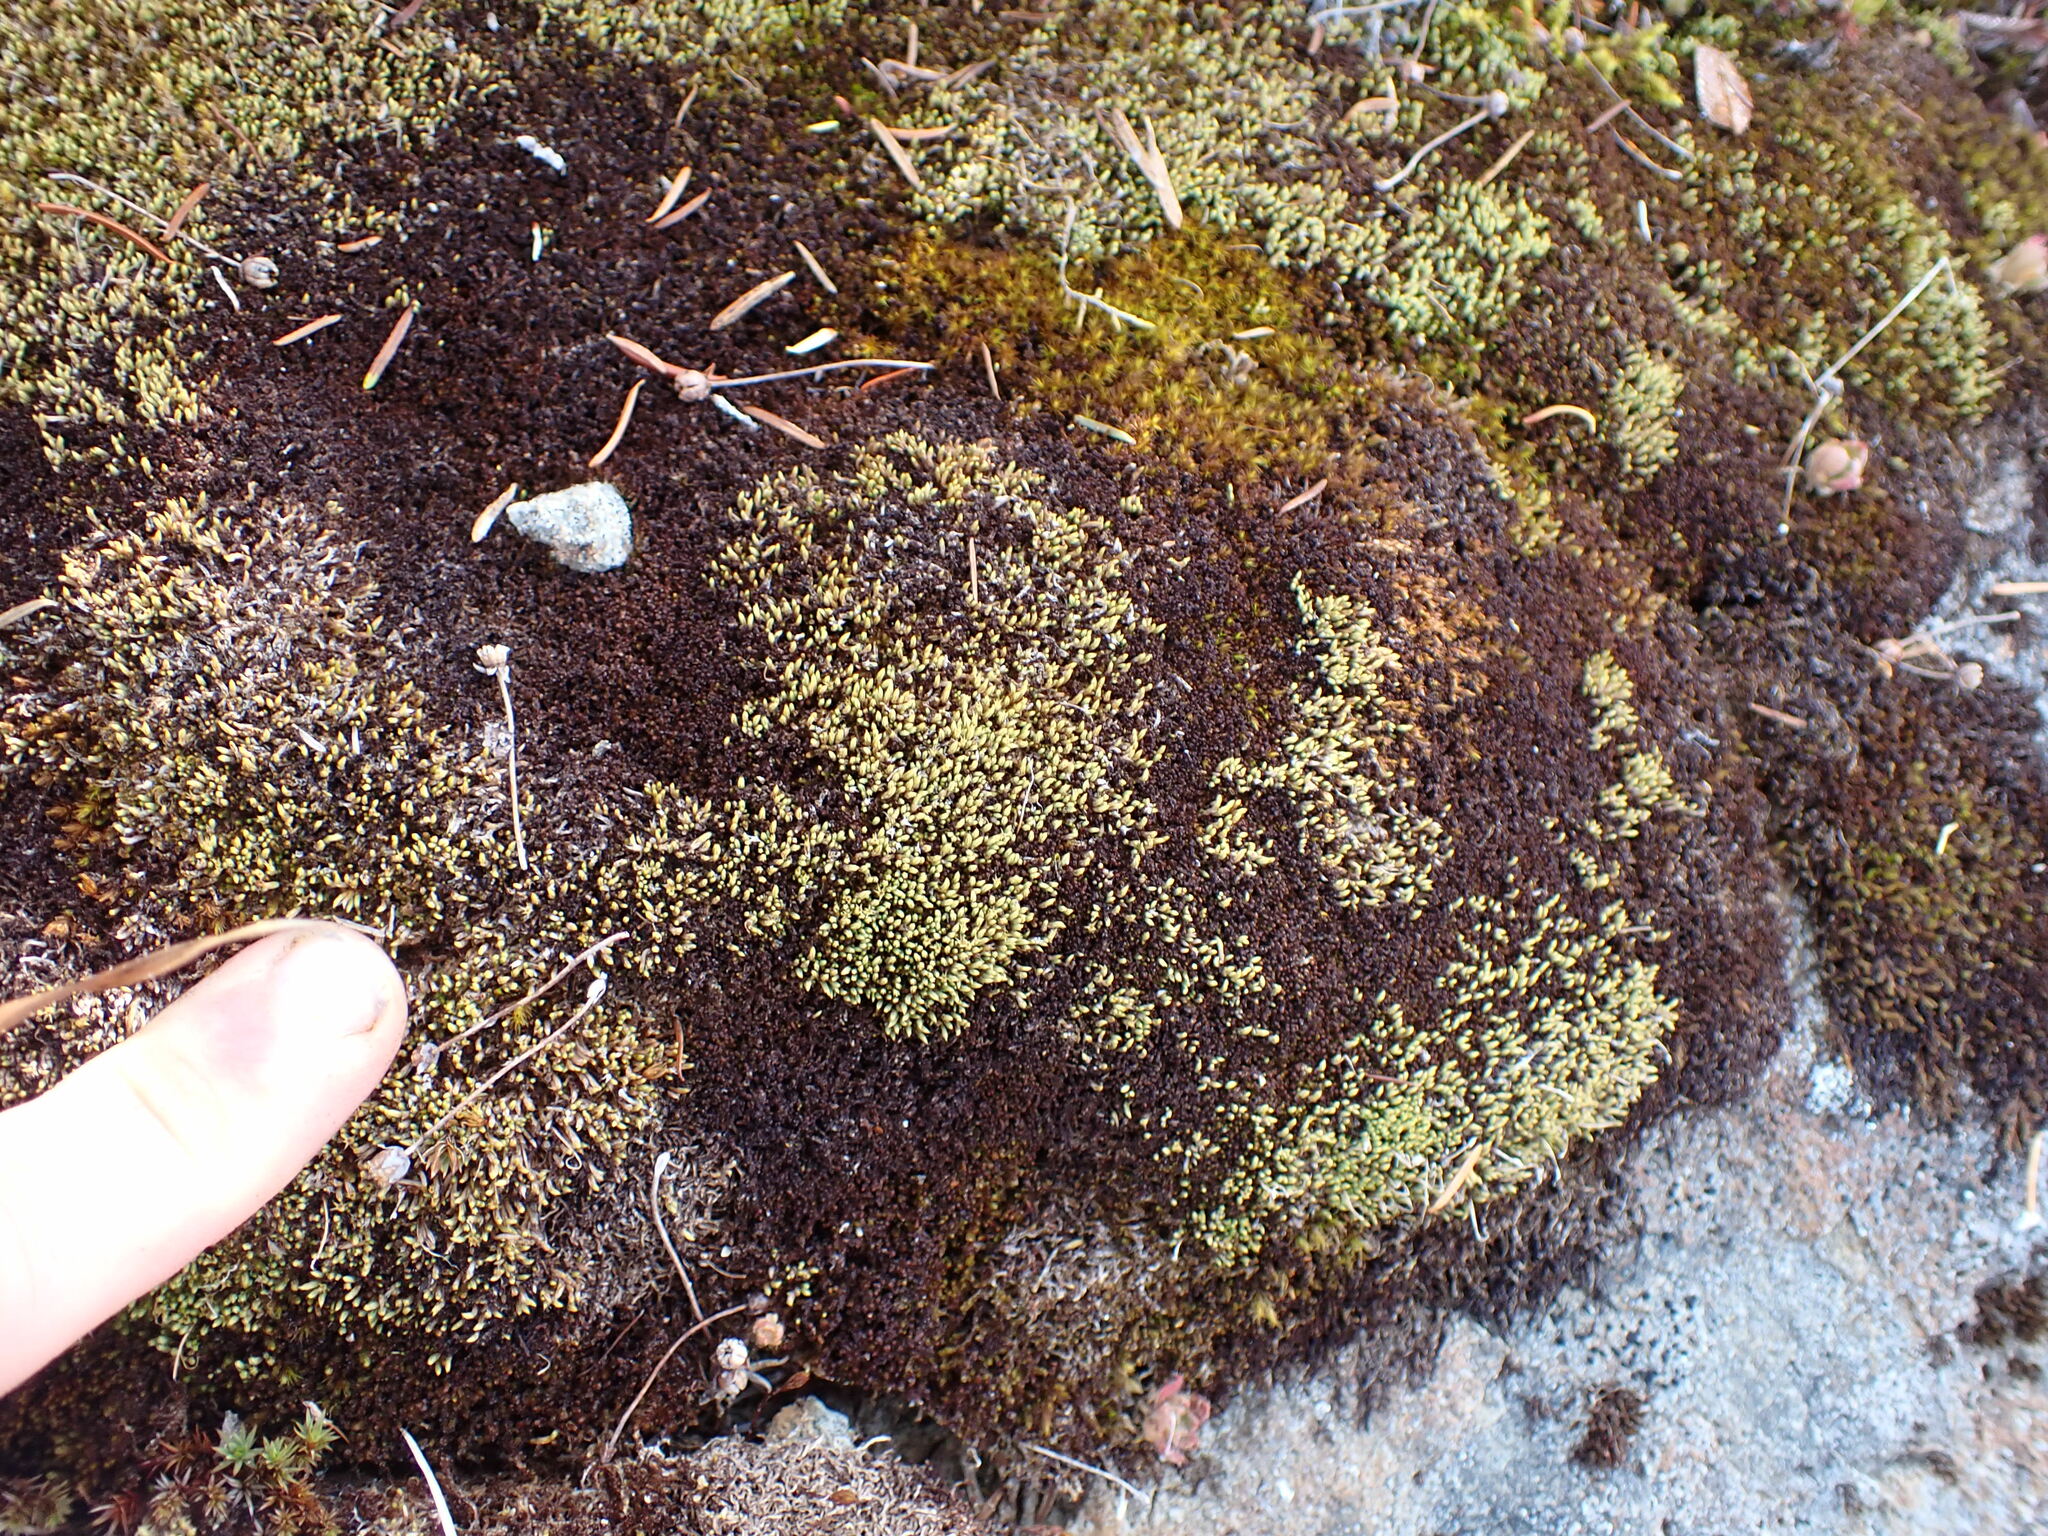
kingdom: Plantae
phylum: Bryophyta
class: Bryopsida
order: Bartramiales
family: Bartramiaceae
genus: Conostomum
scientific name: Conostomum tetragonum
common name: Helmet moss
